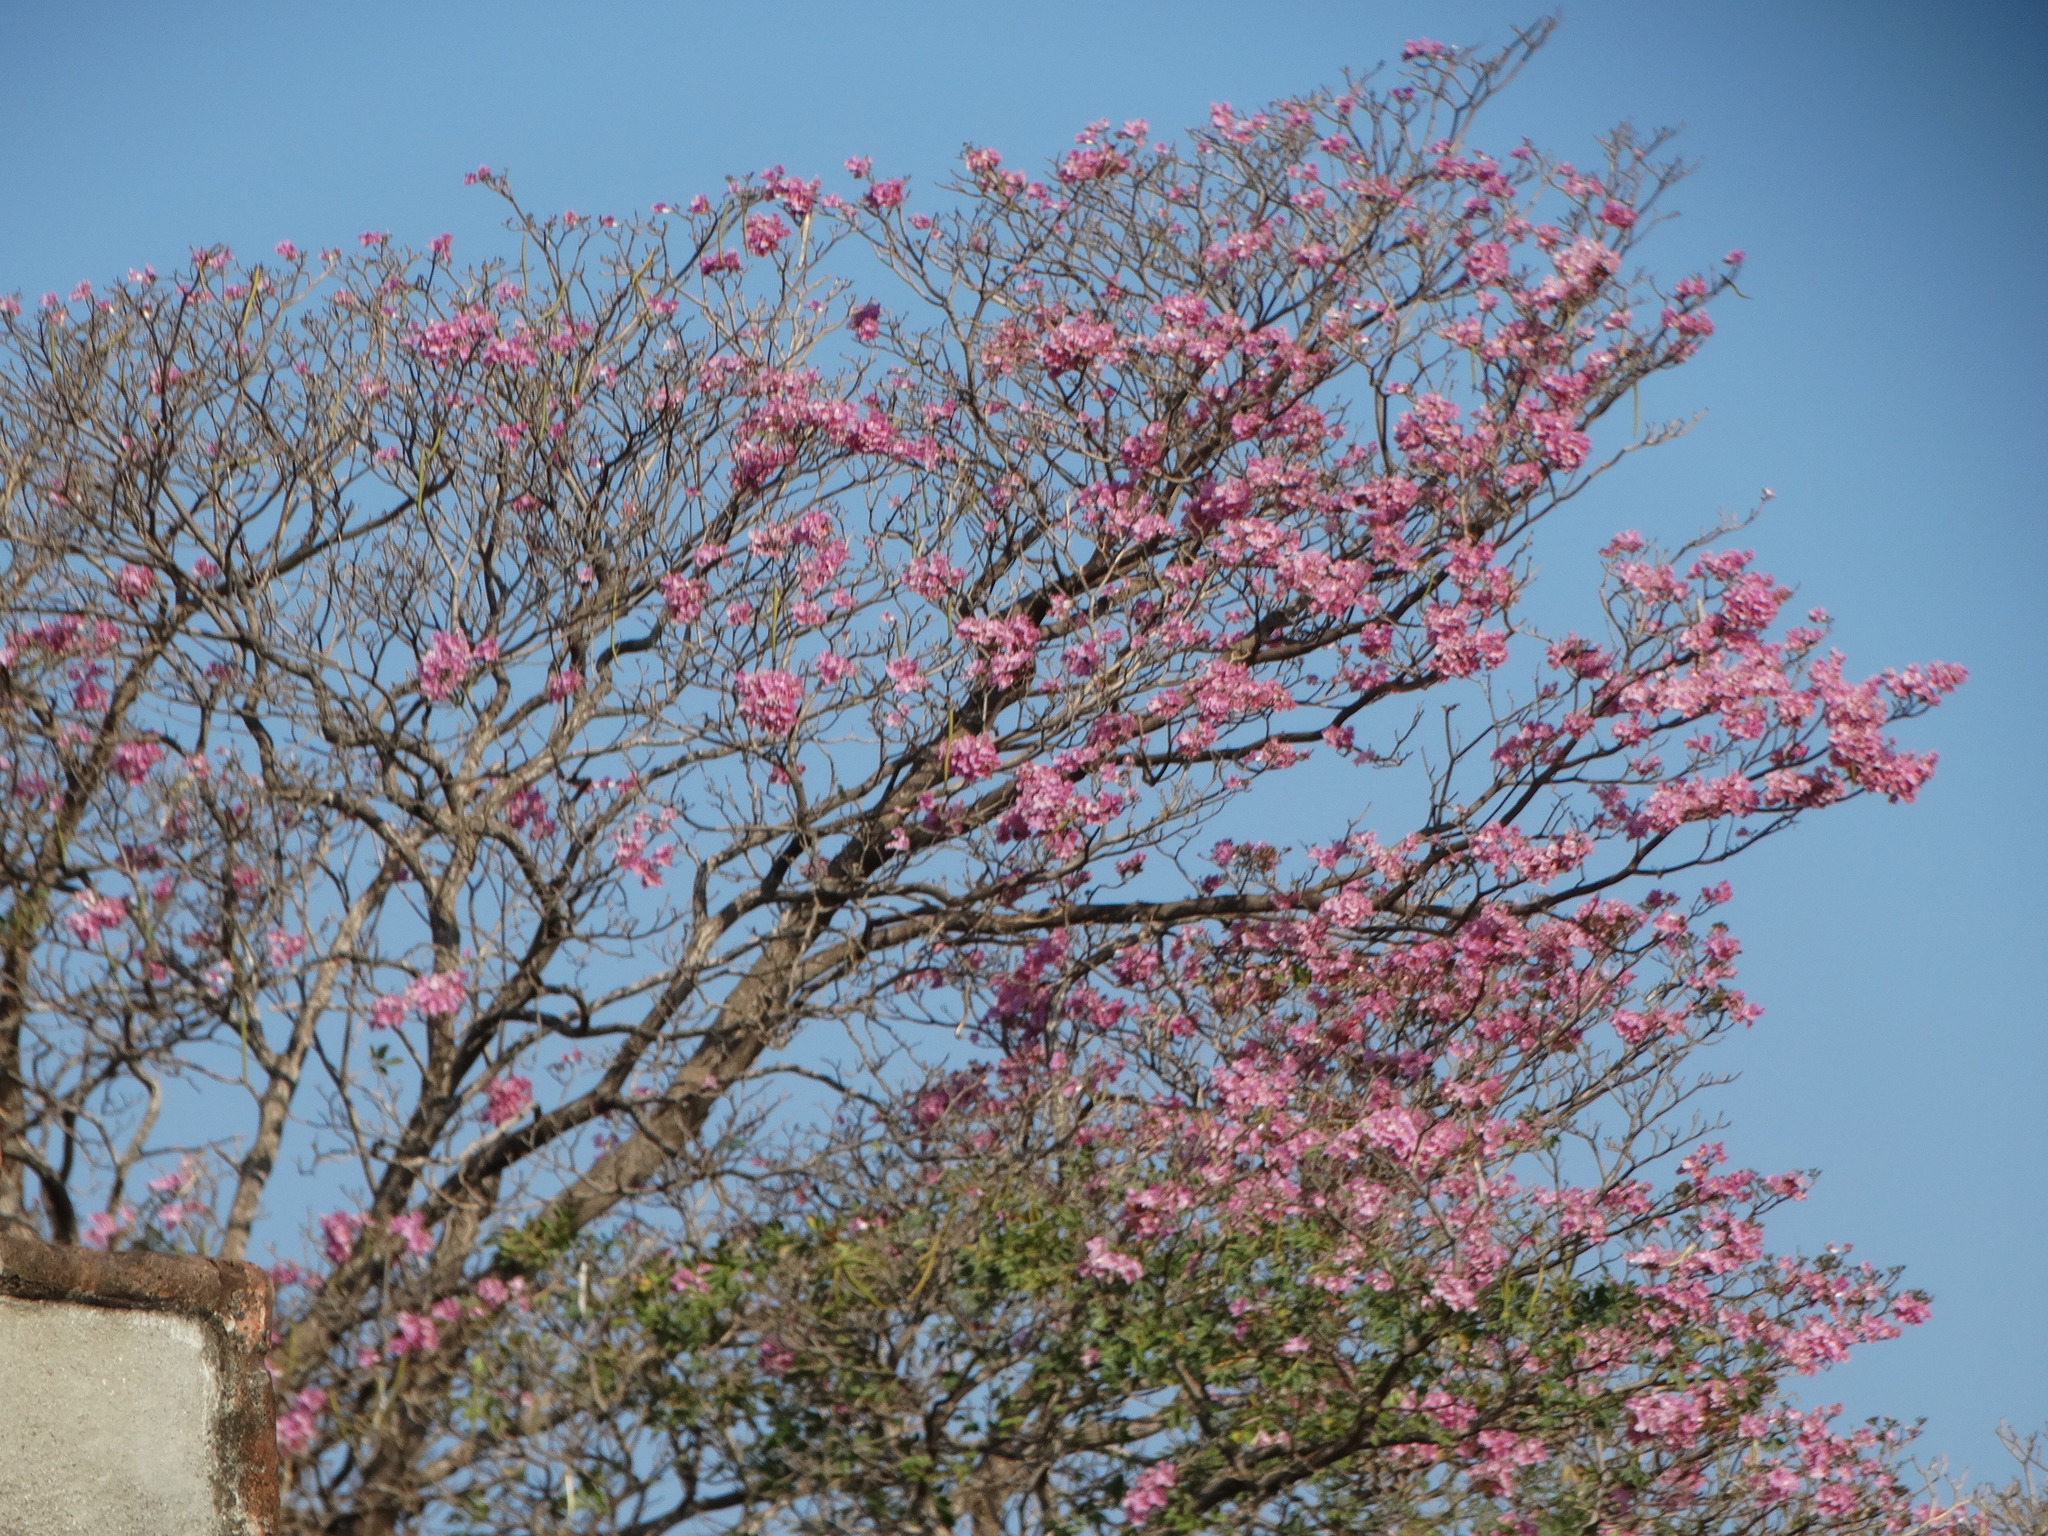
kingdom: Plantae
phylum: Tracheophyta
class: Magnoliopsida
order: Lamiales
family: Bignoniaceae
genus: Tabebuia
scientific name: Tabebuia rosea
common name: Pink poui
